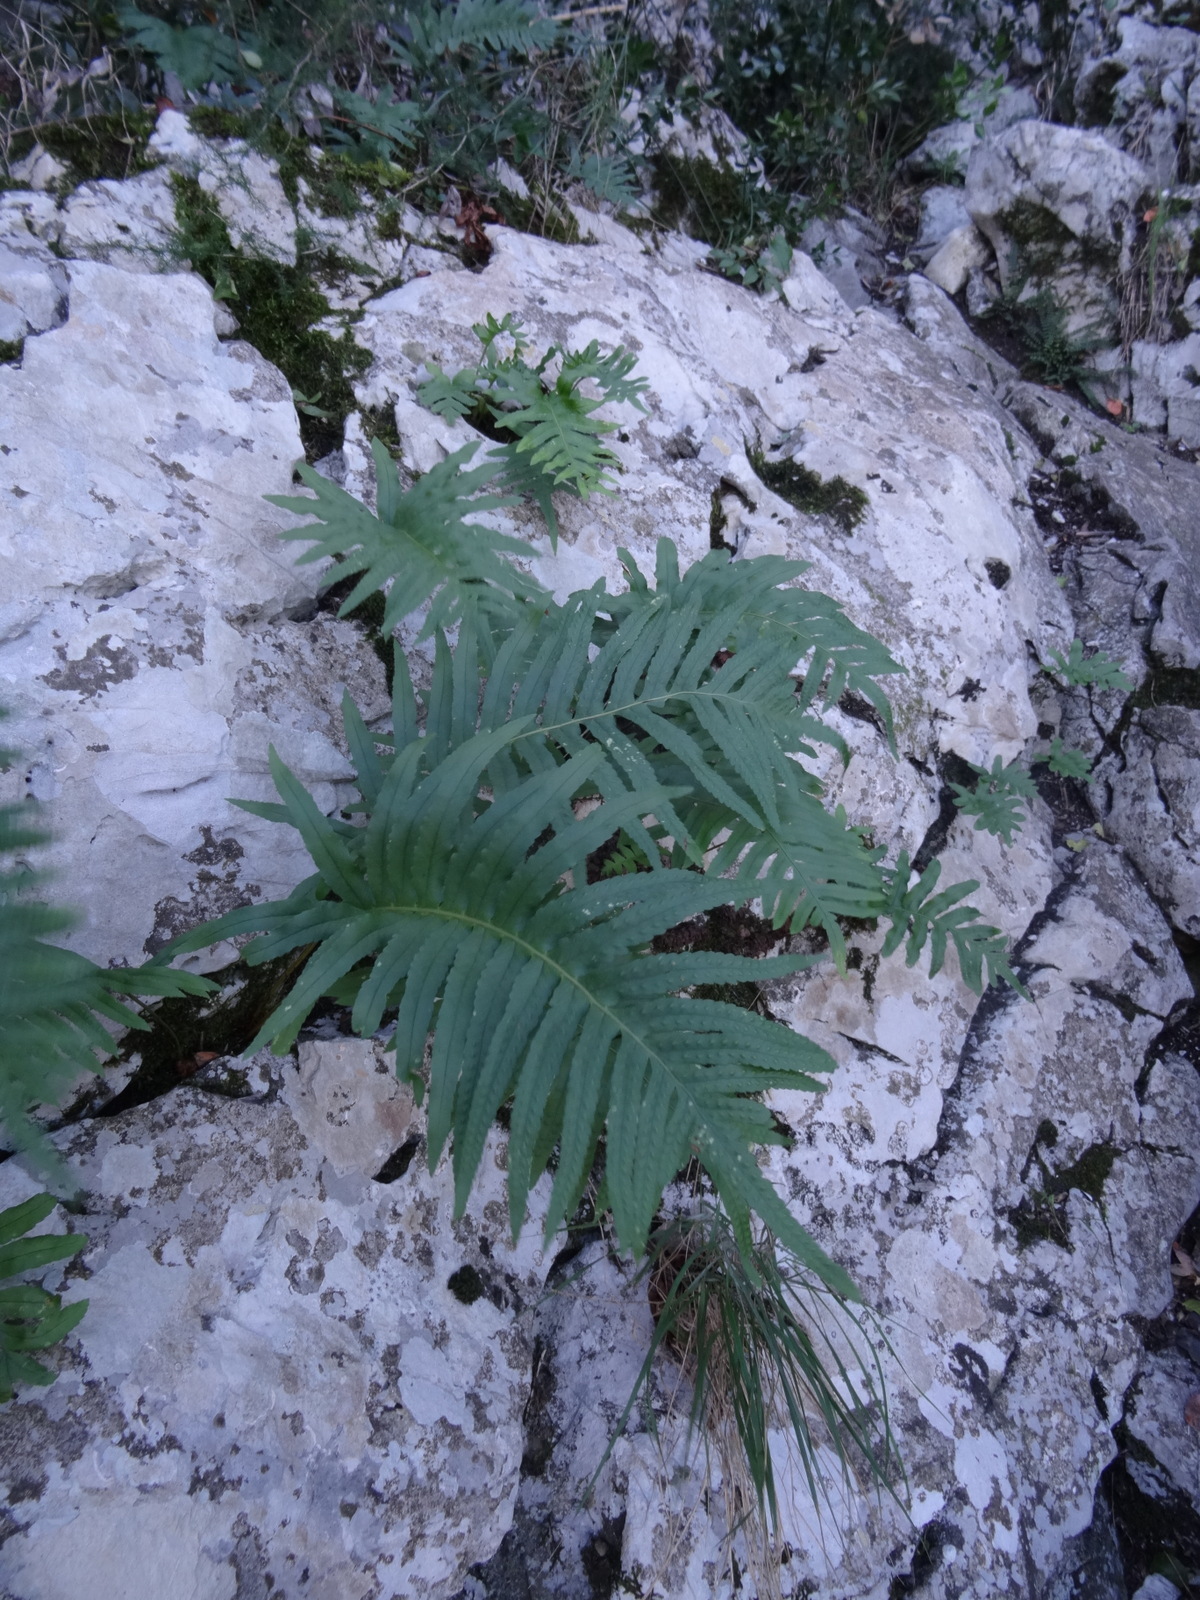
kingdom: Plantae
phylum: Tracheophyta
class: Polypodiopsida
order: Polypodiales
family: Polypodiaceae
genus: Polypodium
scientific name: Polypodium cambricum
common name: Southern polypody
